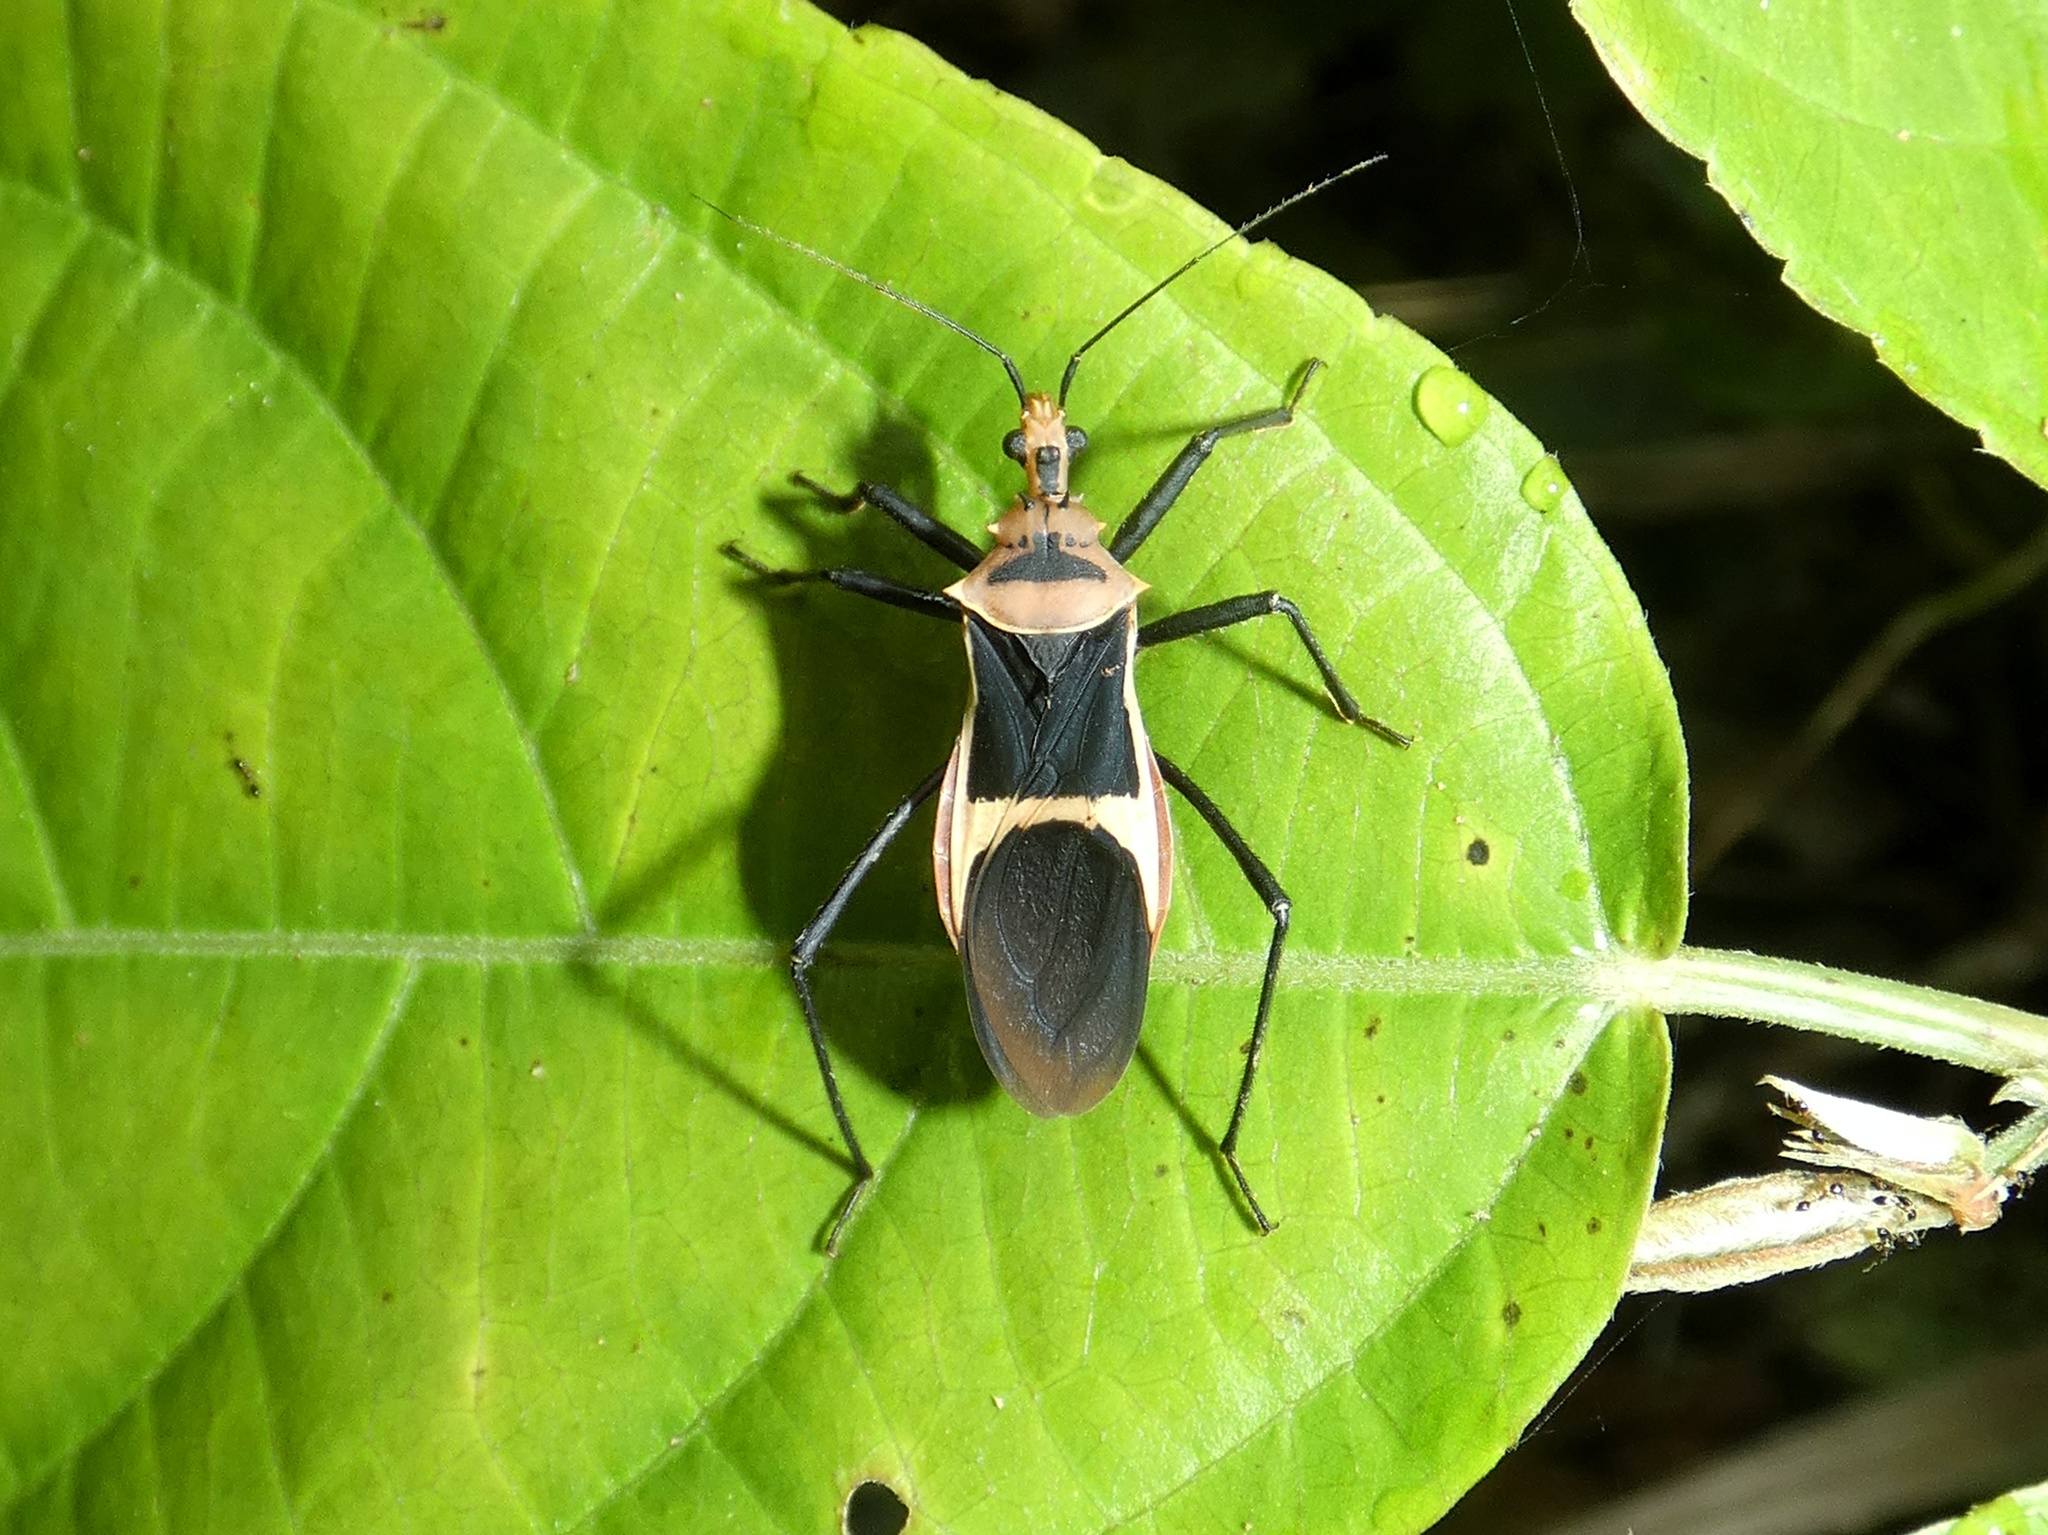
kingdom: Animalia
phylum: Arthropoda
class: Insecta
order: Hemiptera
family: Reduviidae
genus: Zelurus
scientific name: Zelurus circumcinctus
